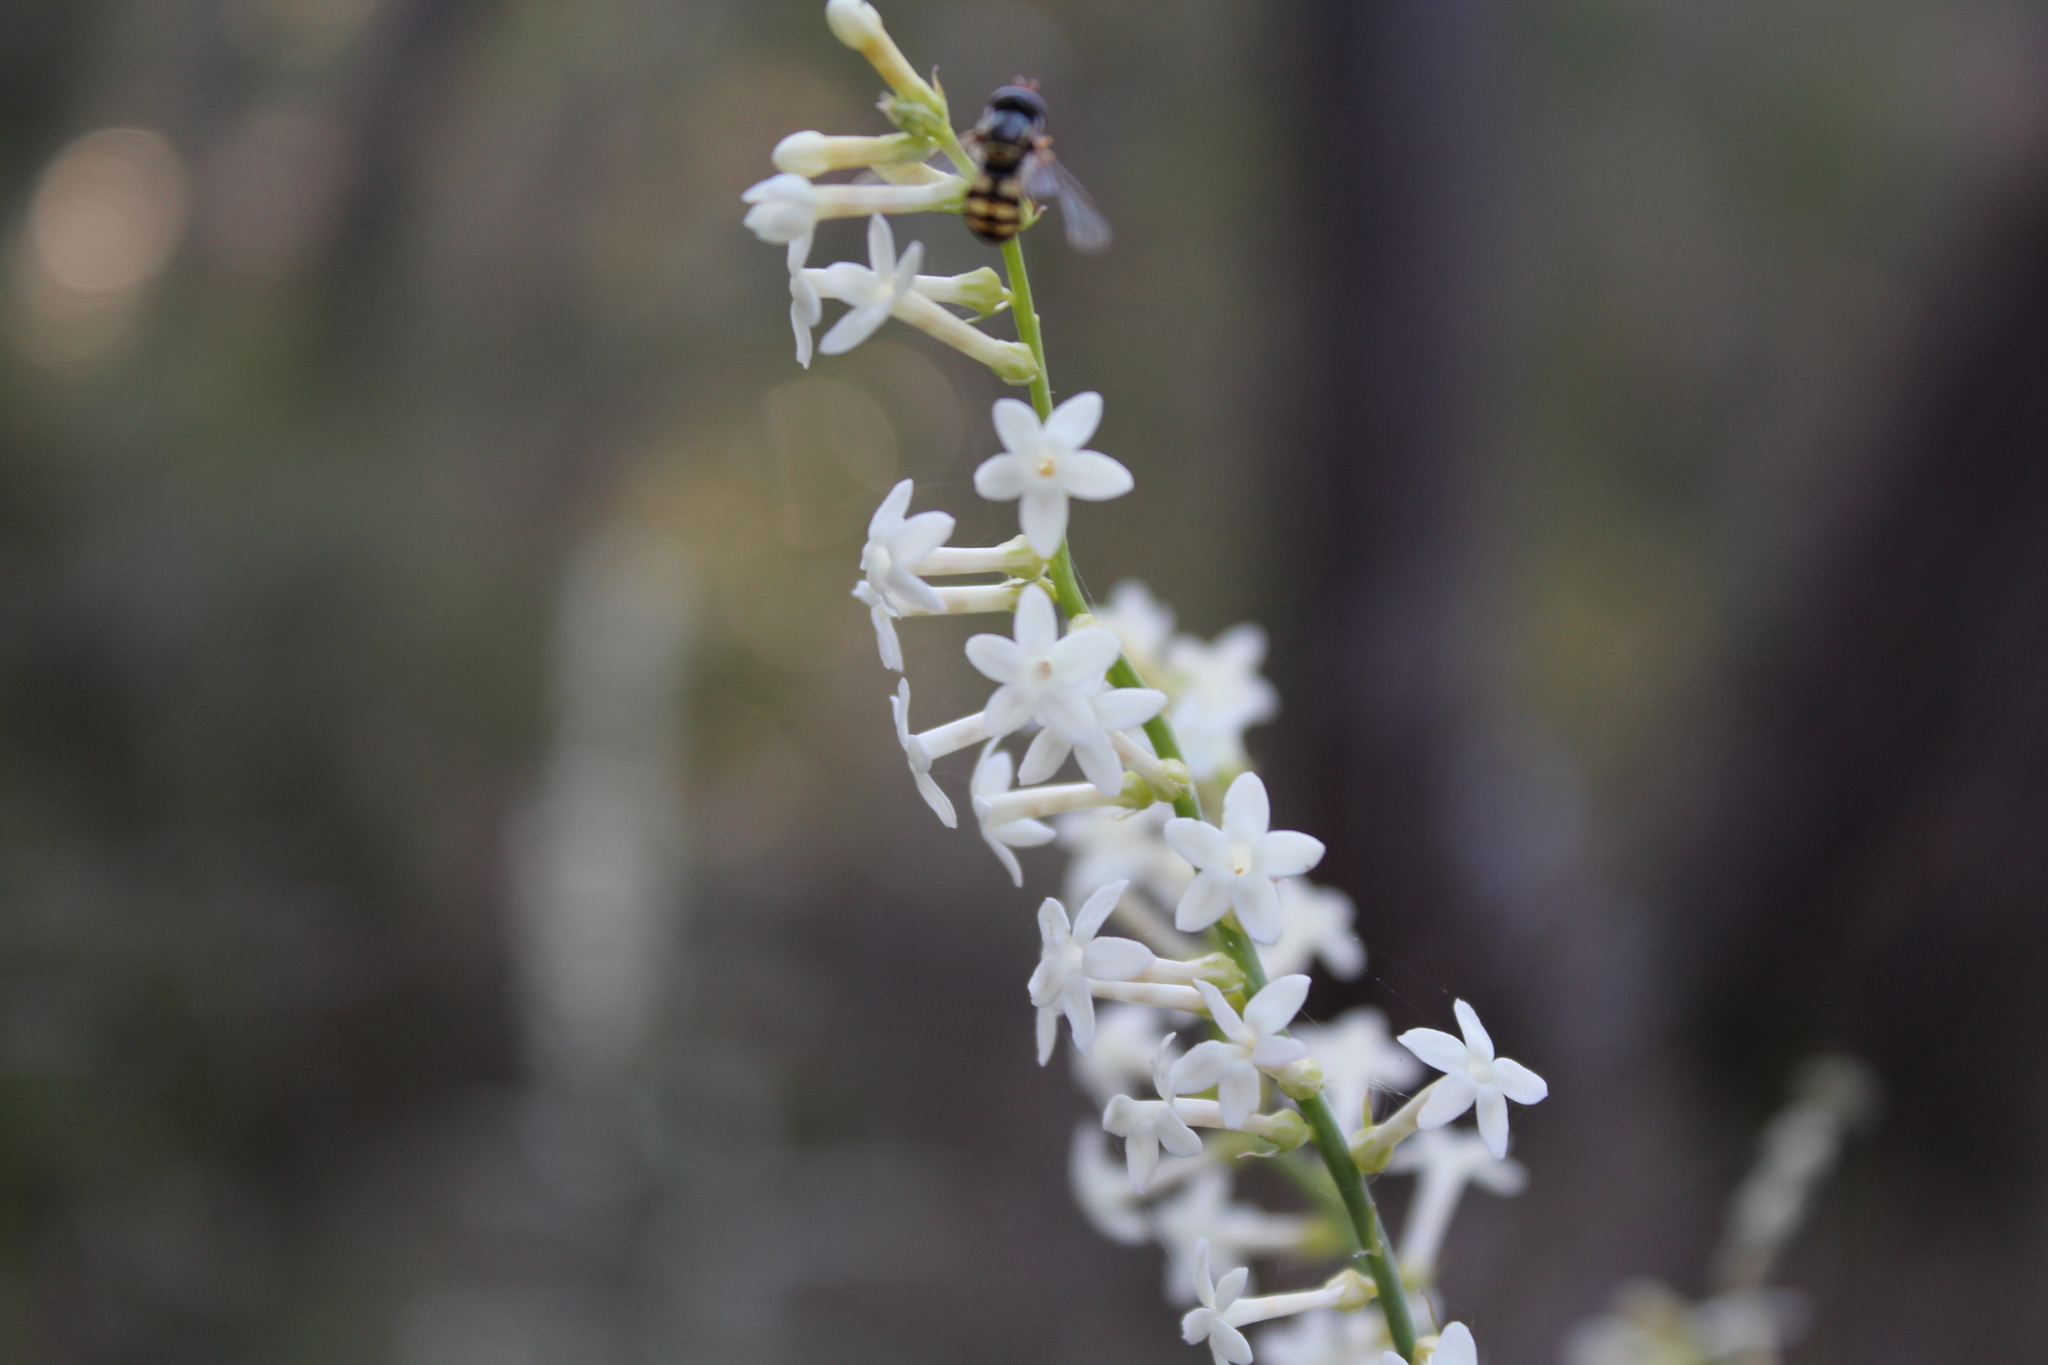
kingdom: Plantae
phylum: Tracheophyta
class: Magnoliopsida
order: Celastrales
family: Celastraceae
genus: Stackhousia
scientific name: Stackhousia monogyna
